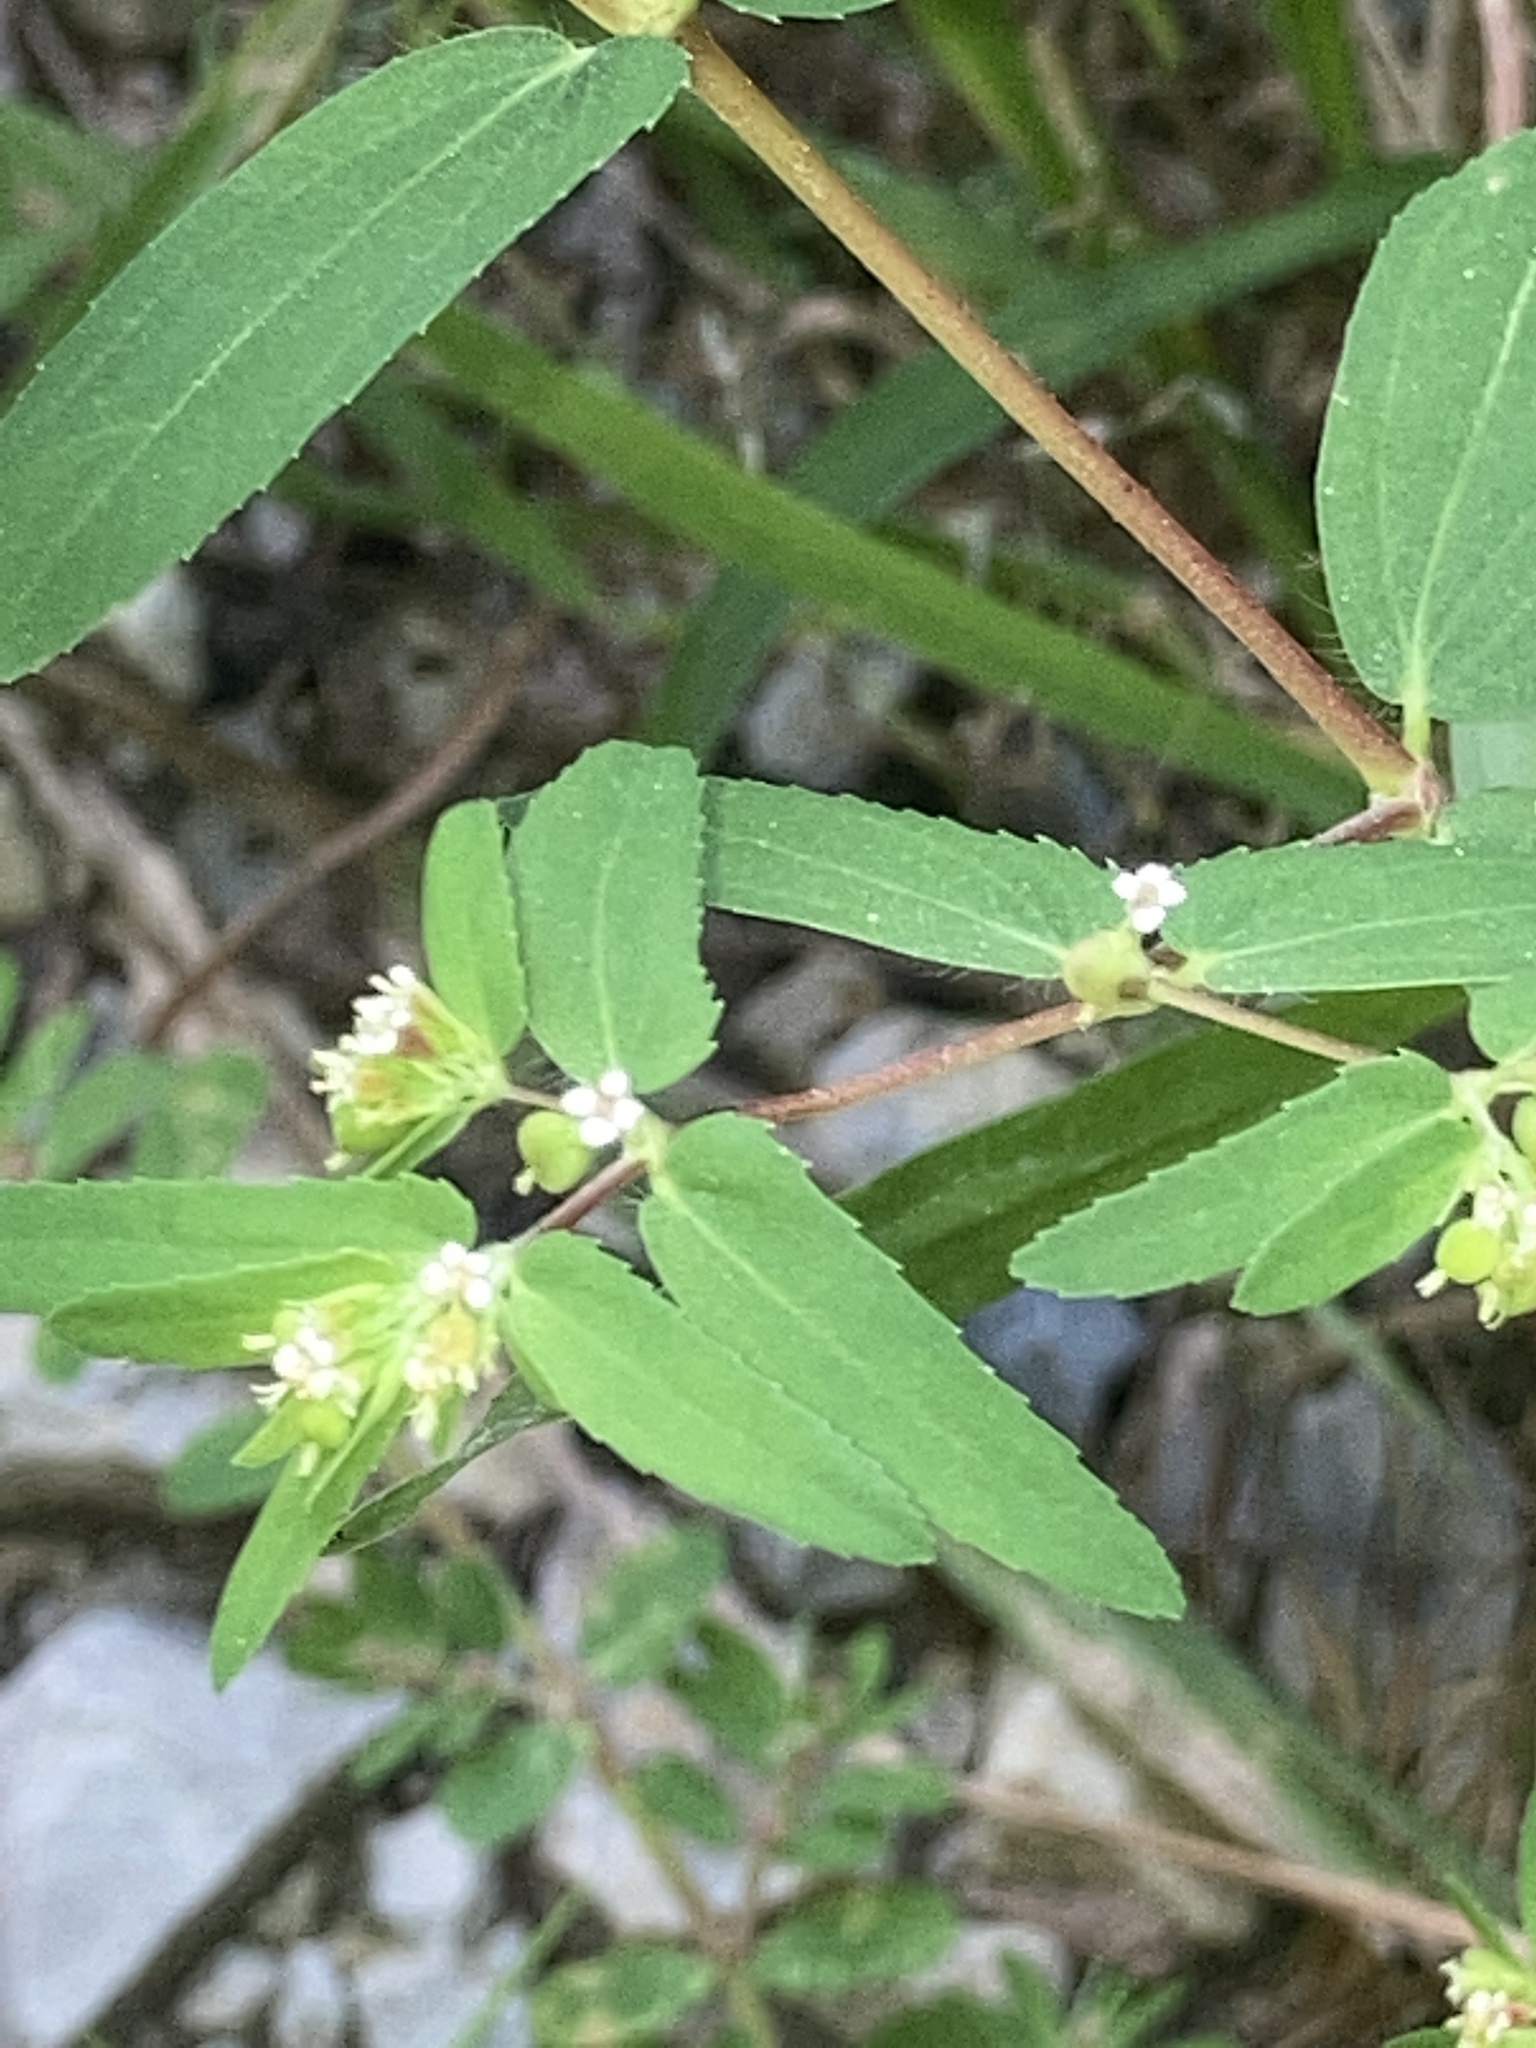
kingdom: Plantae
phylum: Tracheophyta
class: Magnoliopsida
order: Malpighiales
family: Euphorbiaceae
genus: Euphorbia
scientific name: Euphorbia nutans
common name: Eyebane
